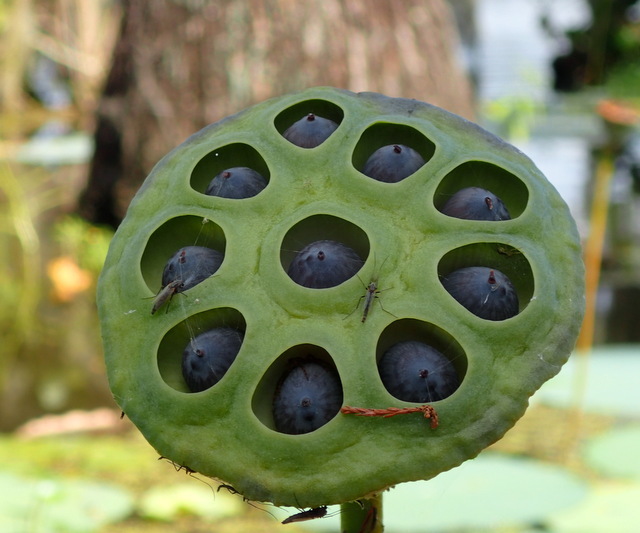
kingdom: Plantae
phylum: Tracheophyta
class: Magnoliopsida
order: Proteales
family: Nelumbonaceae
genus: Nelumbo
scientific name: Nelumbo lutea
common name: American lotus
